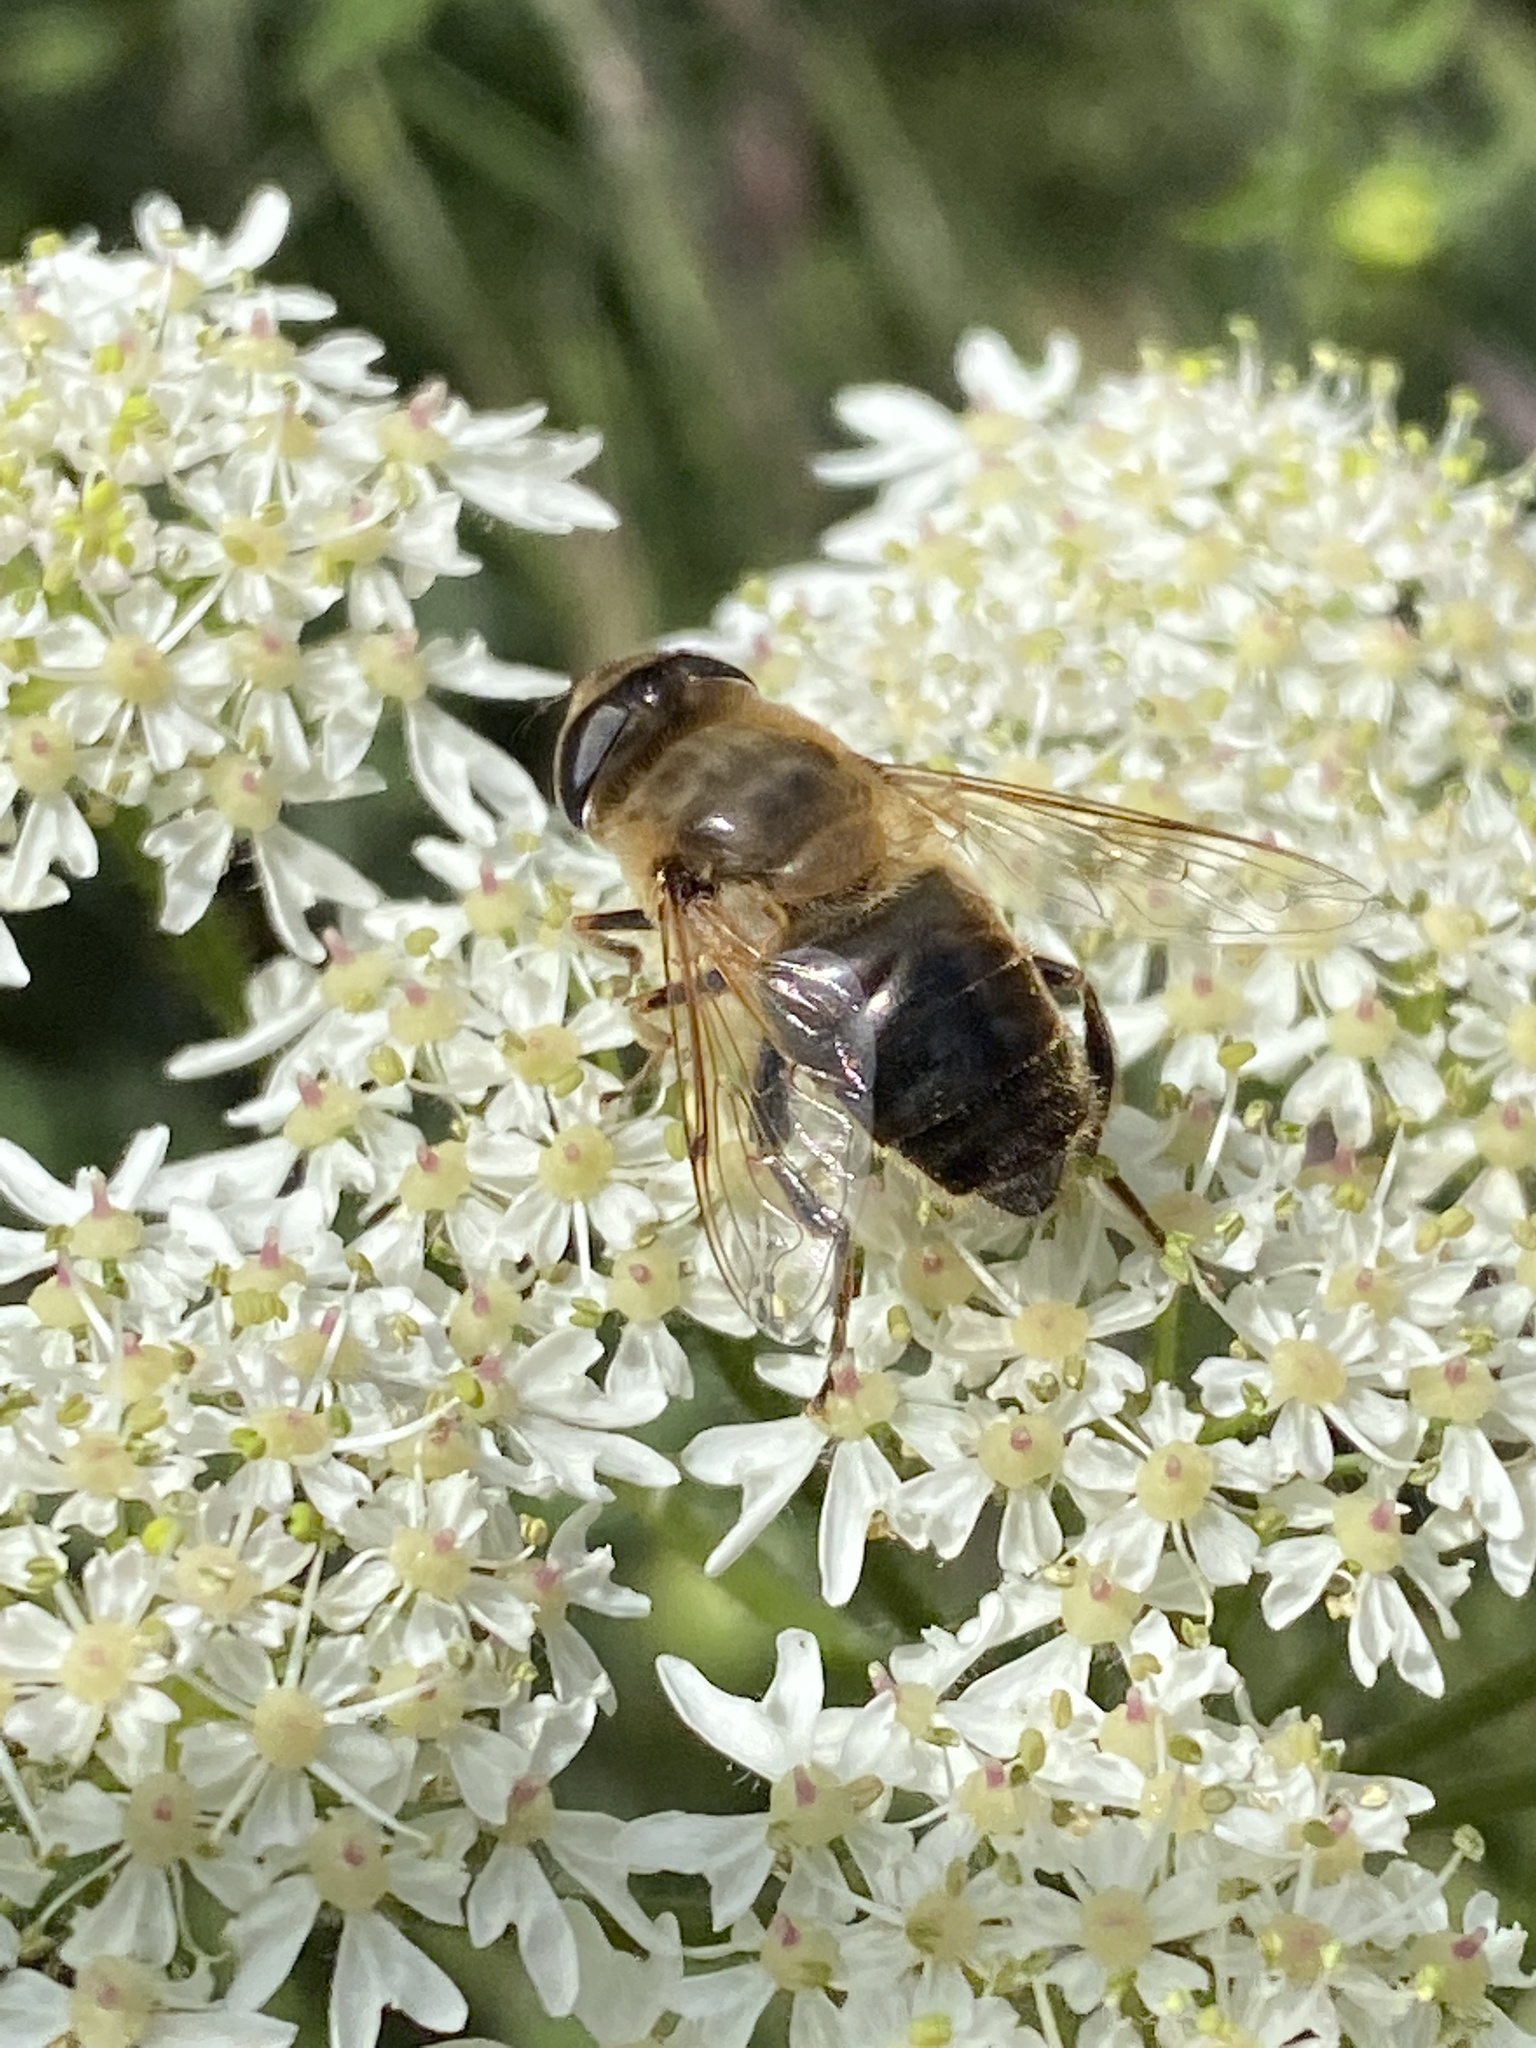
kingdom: Animalia
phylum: Arthropoda
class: Insecta
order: Diptera
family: Syrphidae
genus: Eristalis
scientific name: Eristalis tenax
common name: Drone fly
